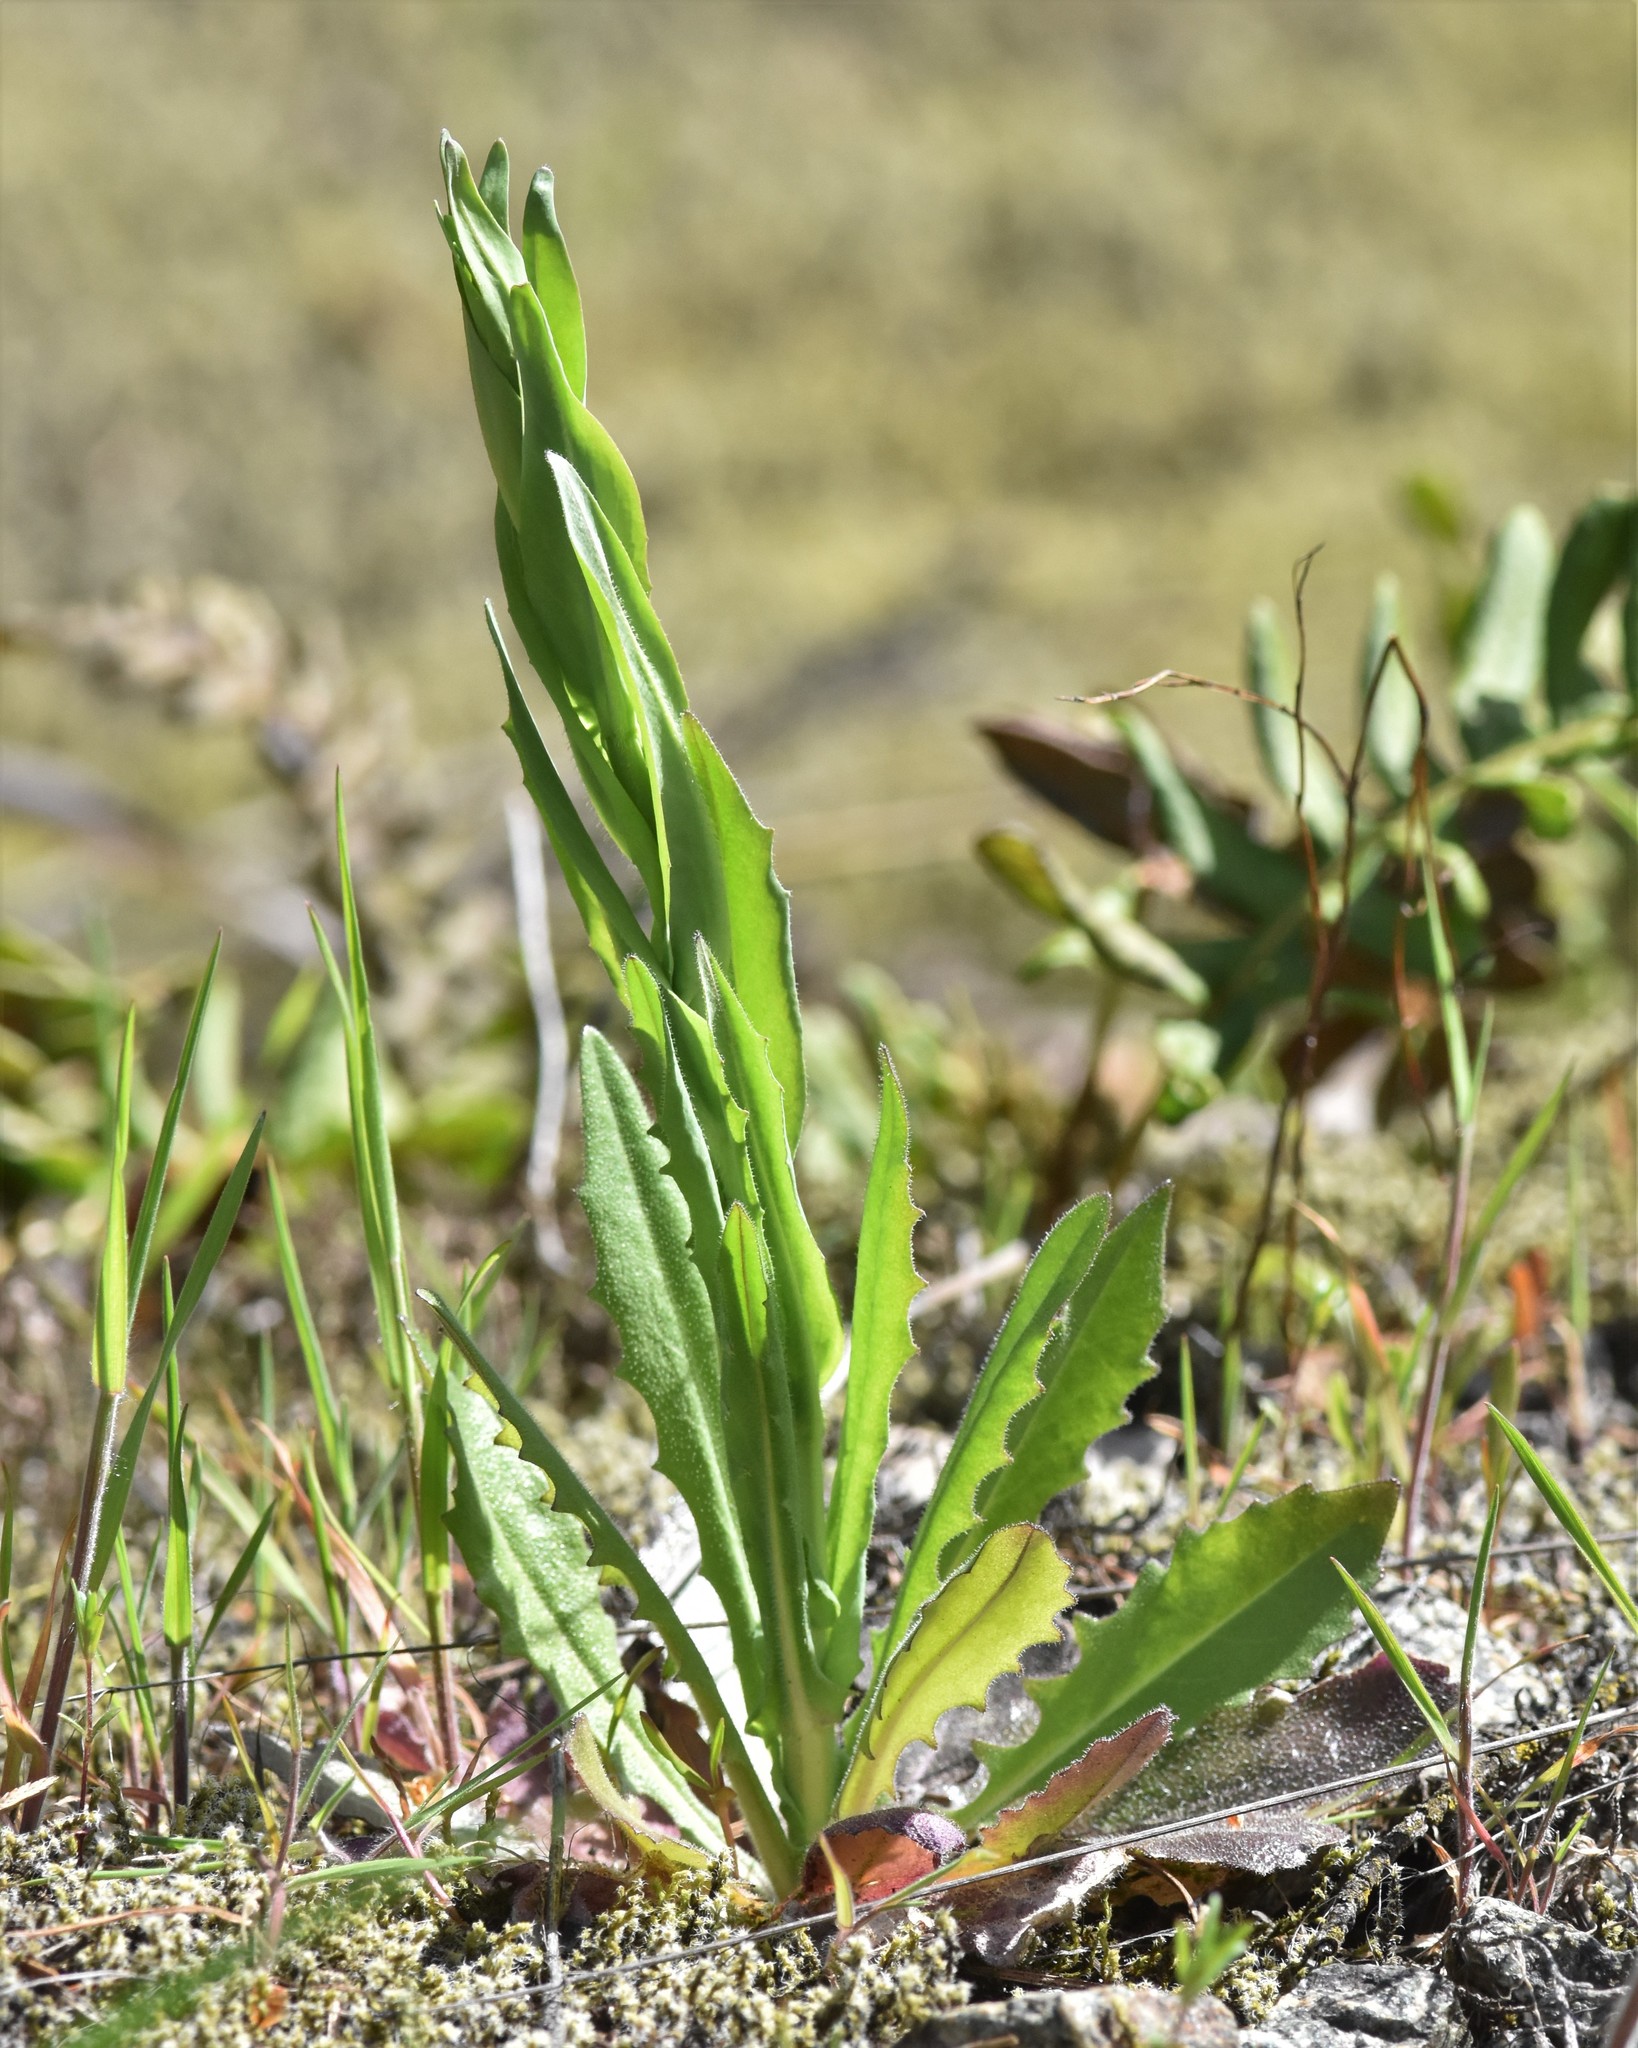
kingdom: Plantae
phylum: Tracheophyta
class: Magnoliopsida
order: Brassicales
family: Brassicaceae
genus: Turritis
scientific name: Turritis glabra
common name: Tower rockcress
